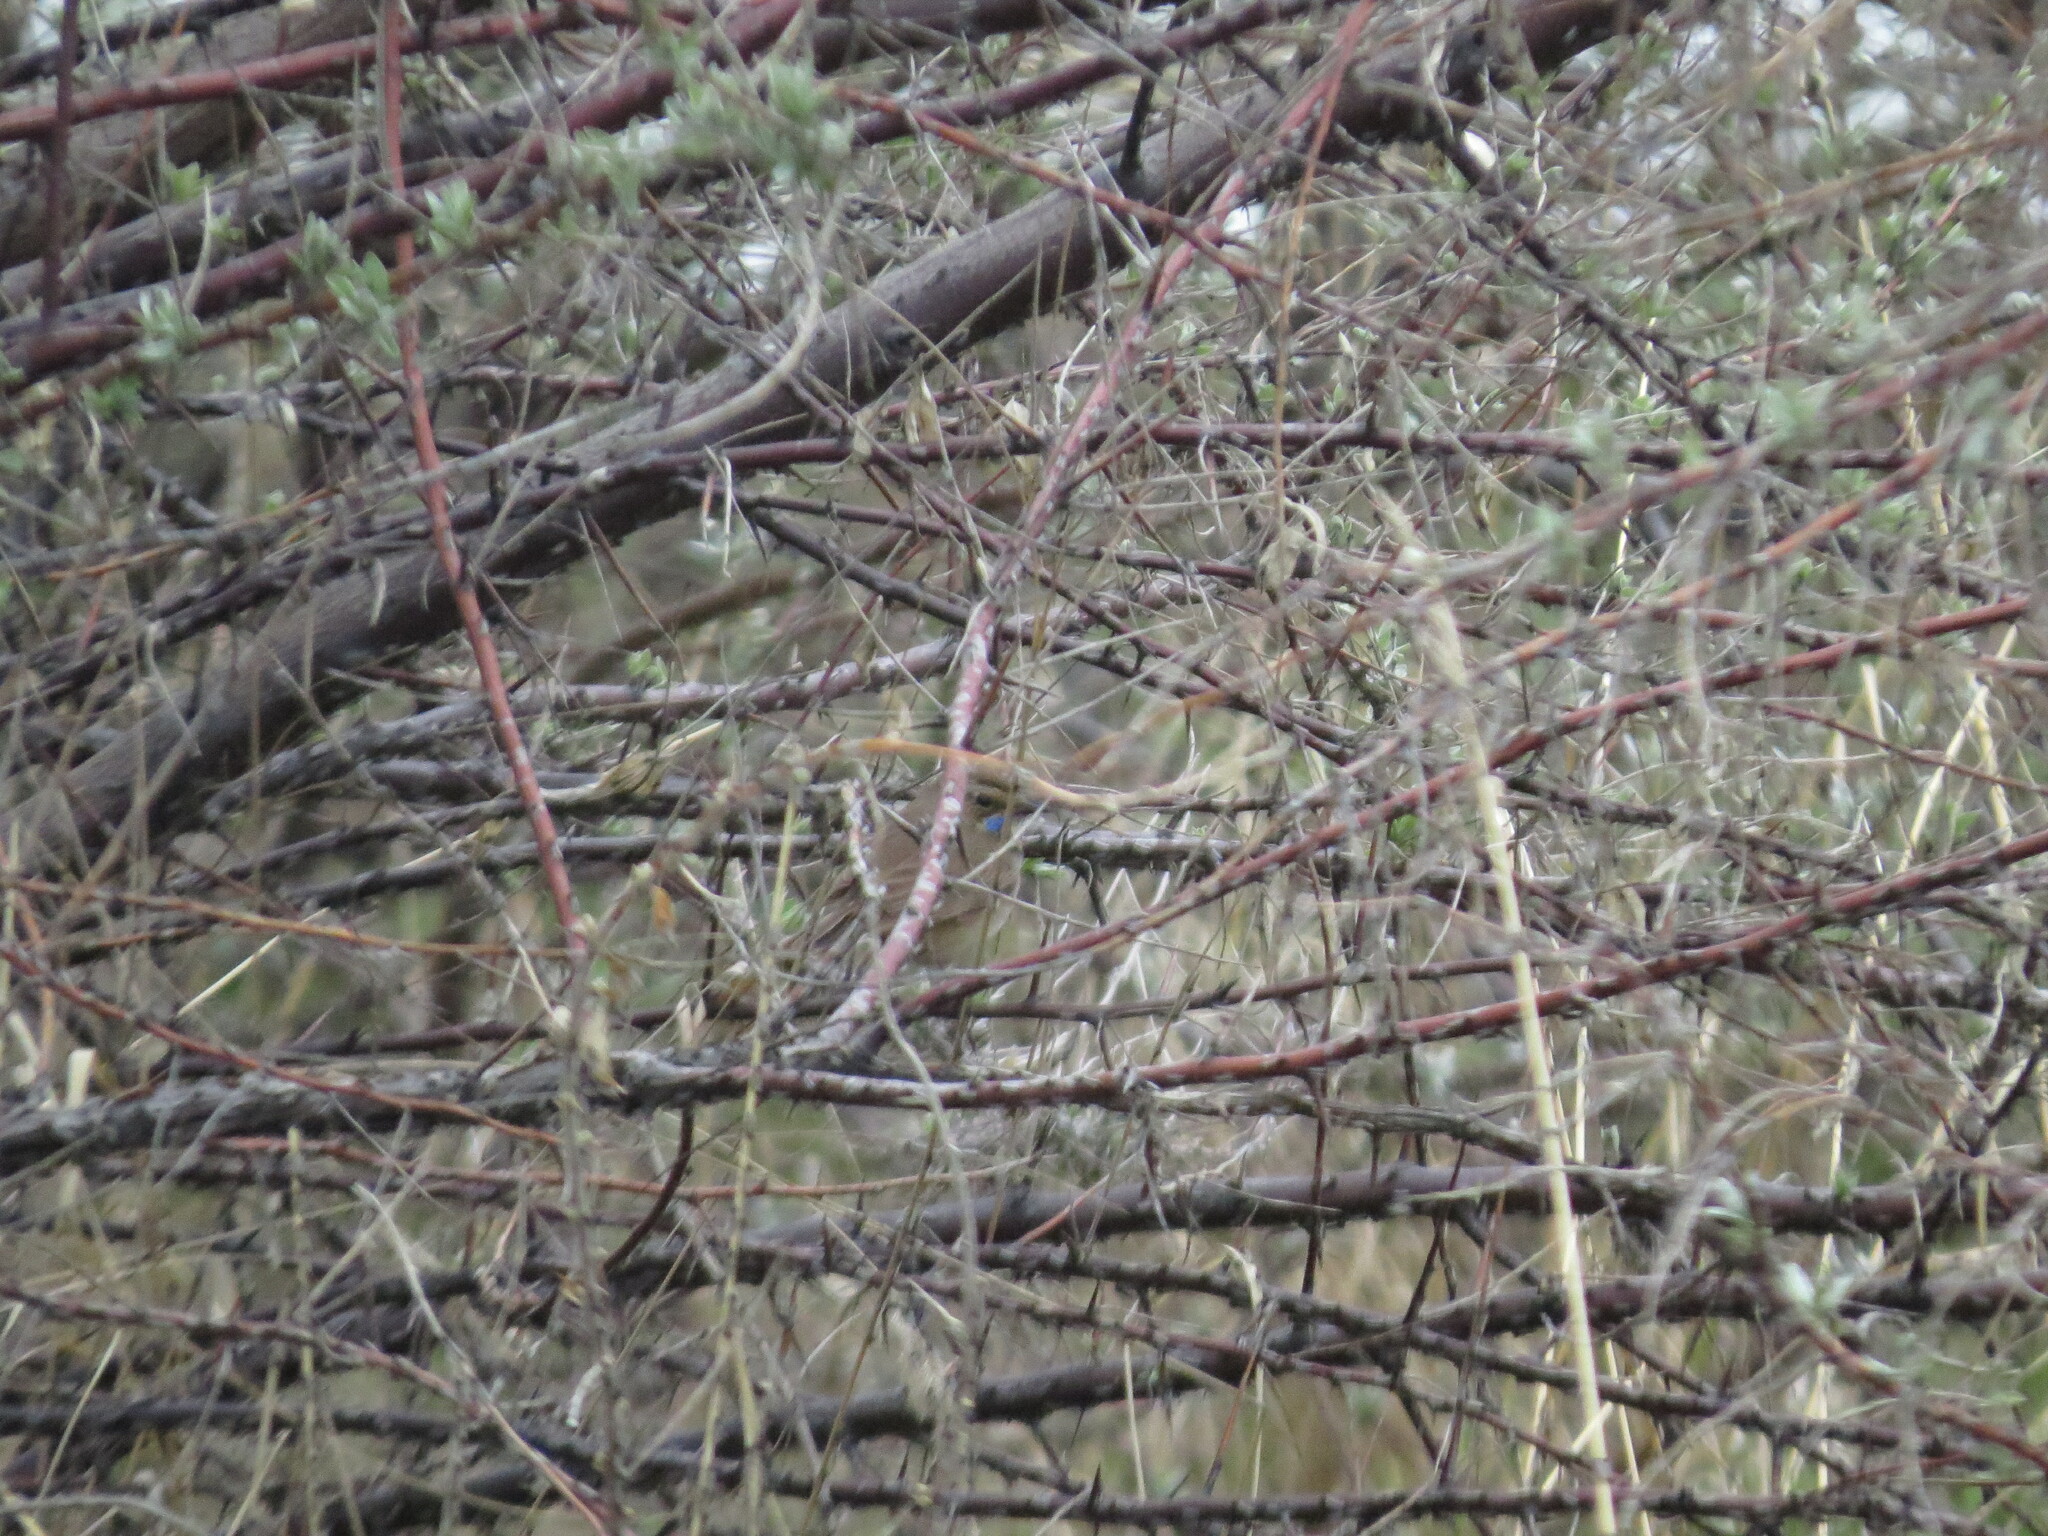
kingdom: Animalia
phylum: Chordata
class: Aves
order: Passeriformes
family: Muscicapidae
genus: Luscinia
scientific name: Luscinia svecica
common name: Bluethroat
